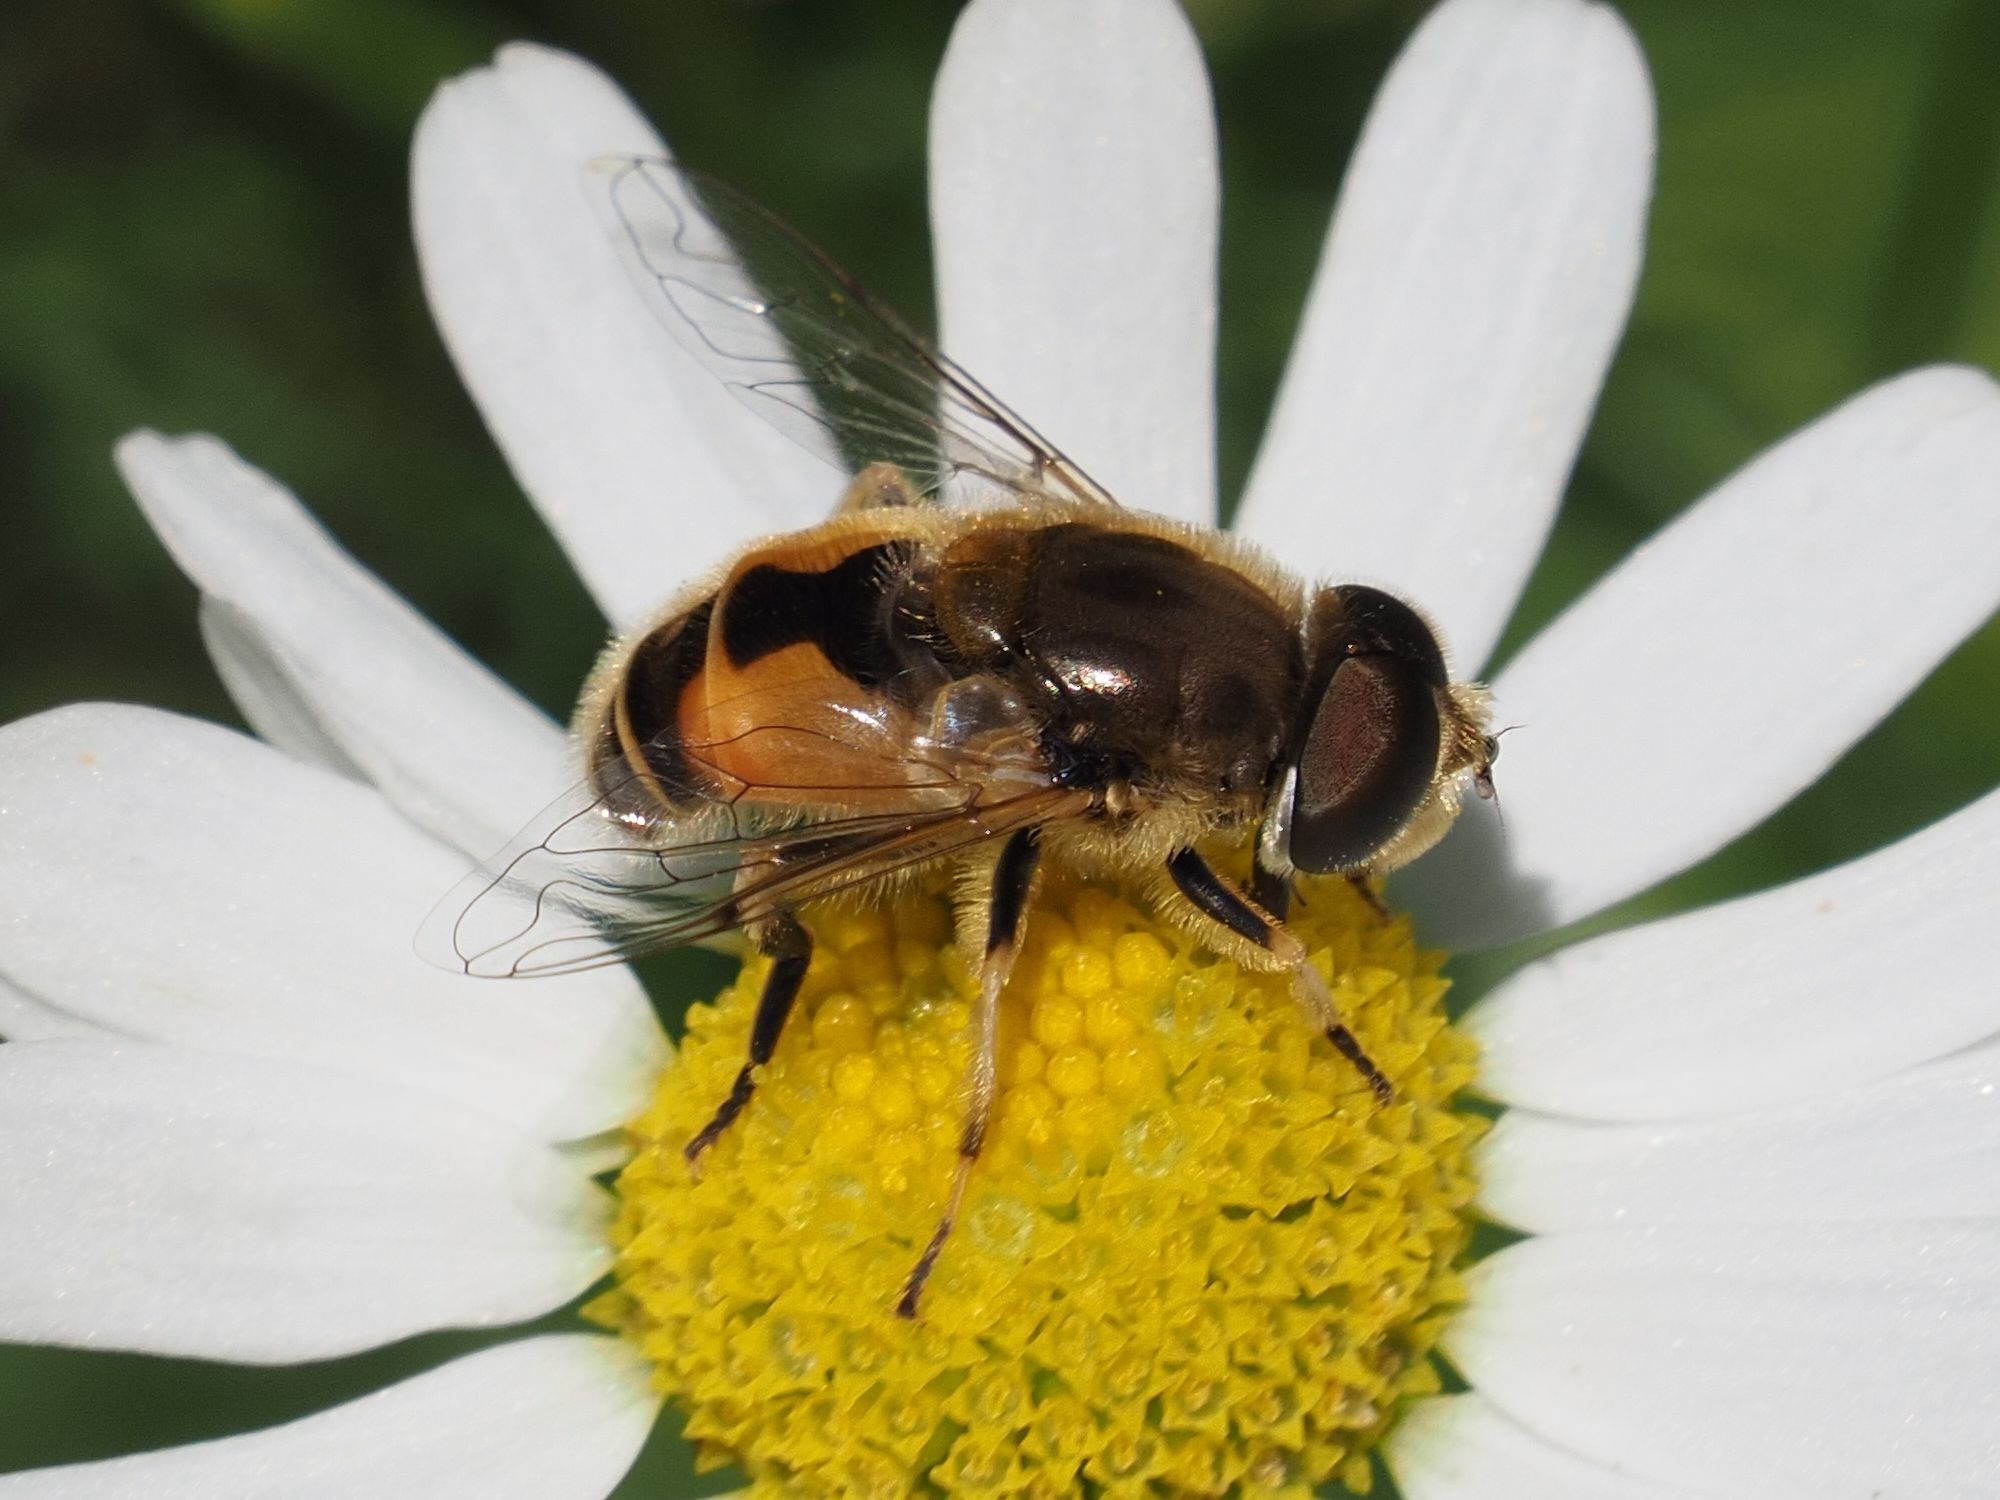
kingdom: Animalia
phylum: Arthropoda
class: Insecta
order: Diptera
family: Syrphidae
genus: Eristalis
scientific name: Eristalis arbustorum
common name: Hover fly
